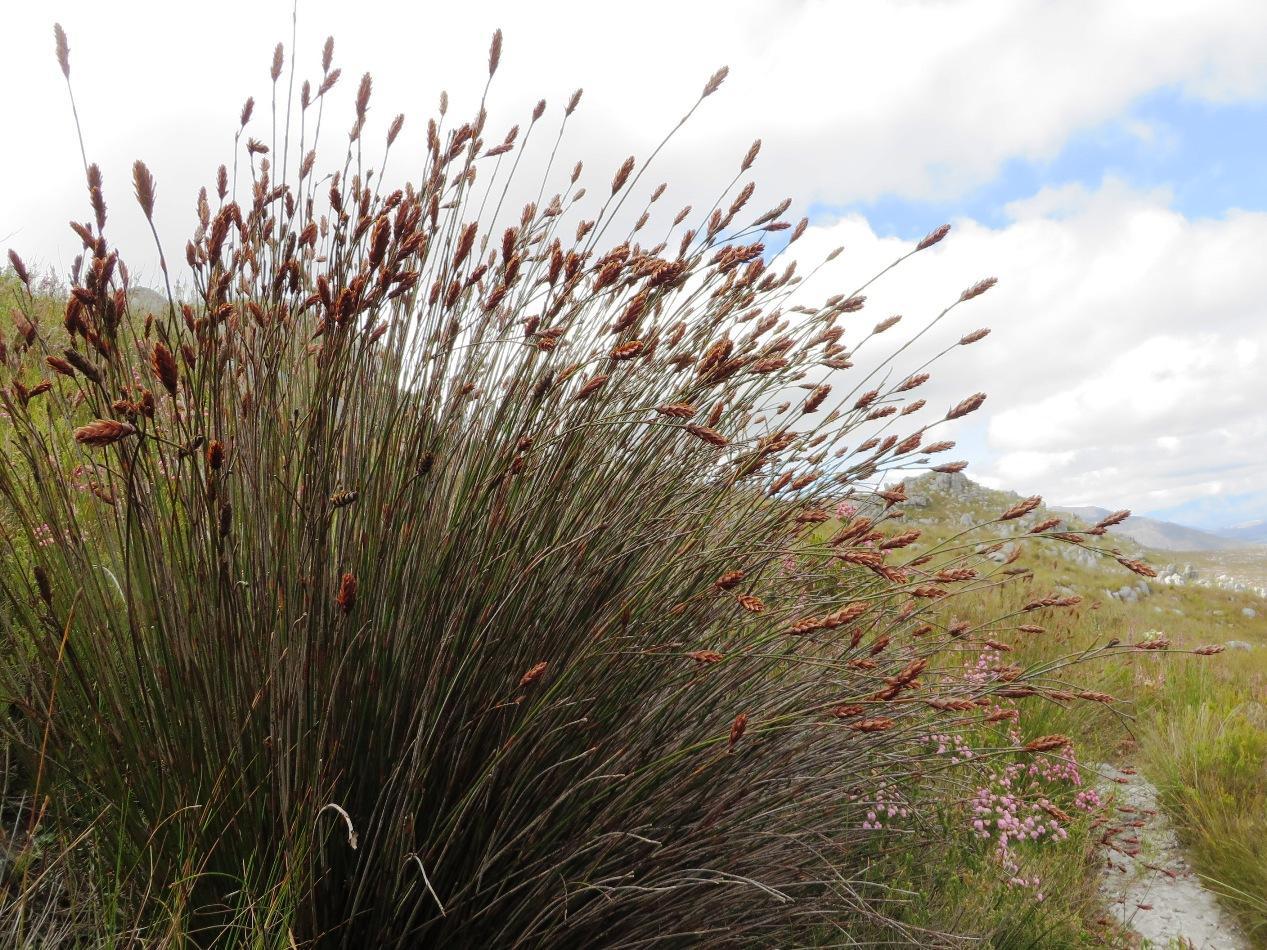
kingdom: Plantae
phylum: Tracheophyta
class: Liliopsida
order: Poales
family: Restionaceae
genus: Restio
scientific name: Restio bifarius
